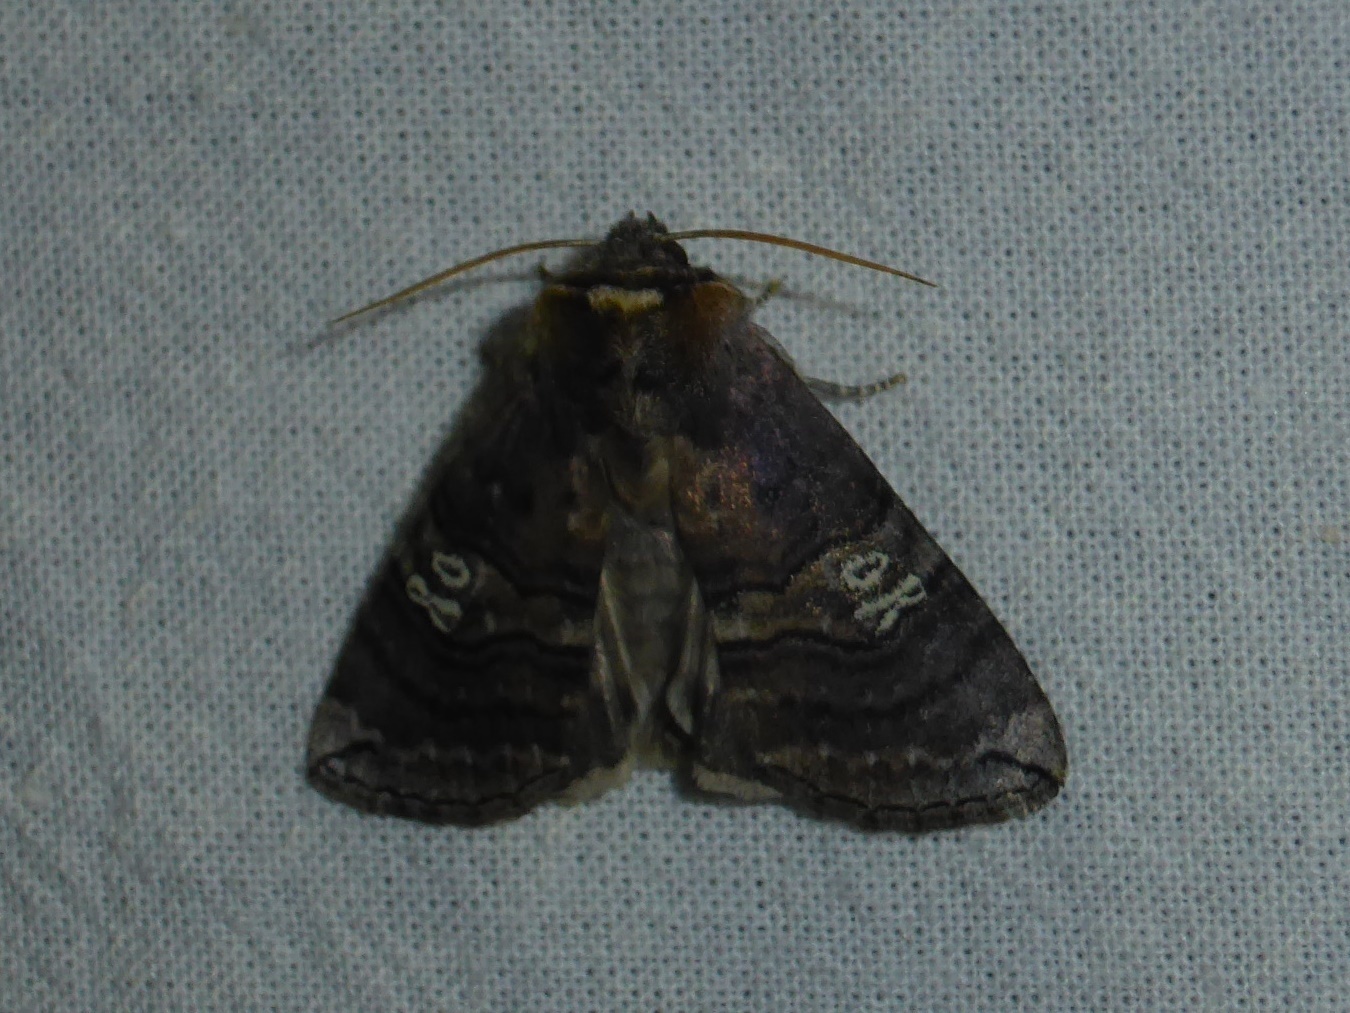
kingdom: Animalia
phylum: Arthropoda
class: Insecta
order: Lepidoptera
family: Drepanidae
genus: Tethea
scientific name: Tethea ocularis
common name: Figure of eighty
